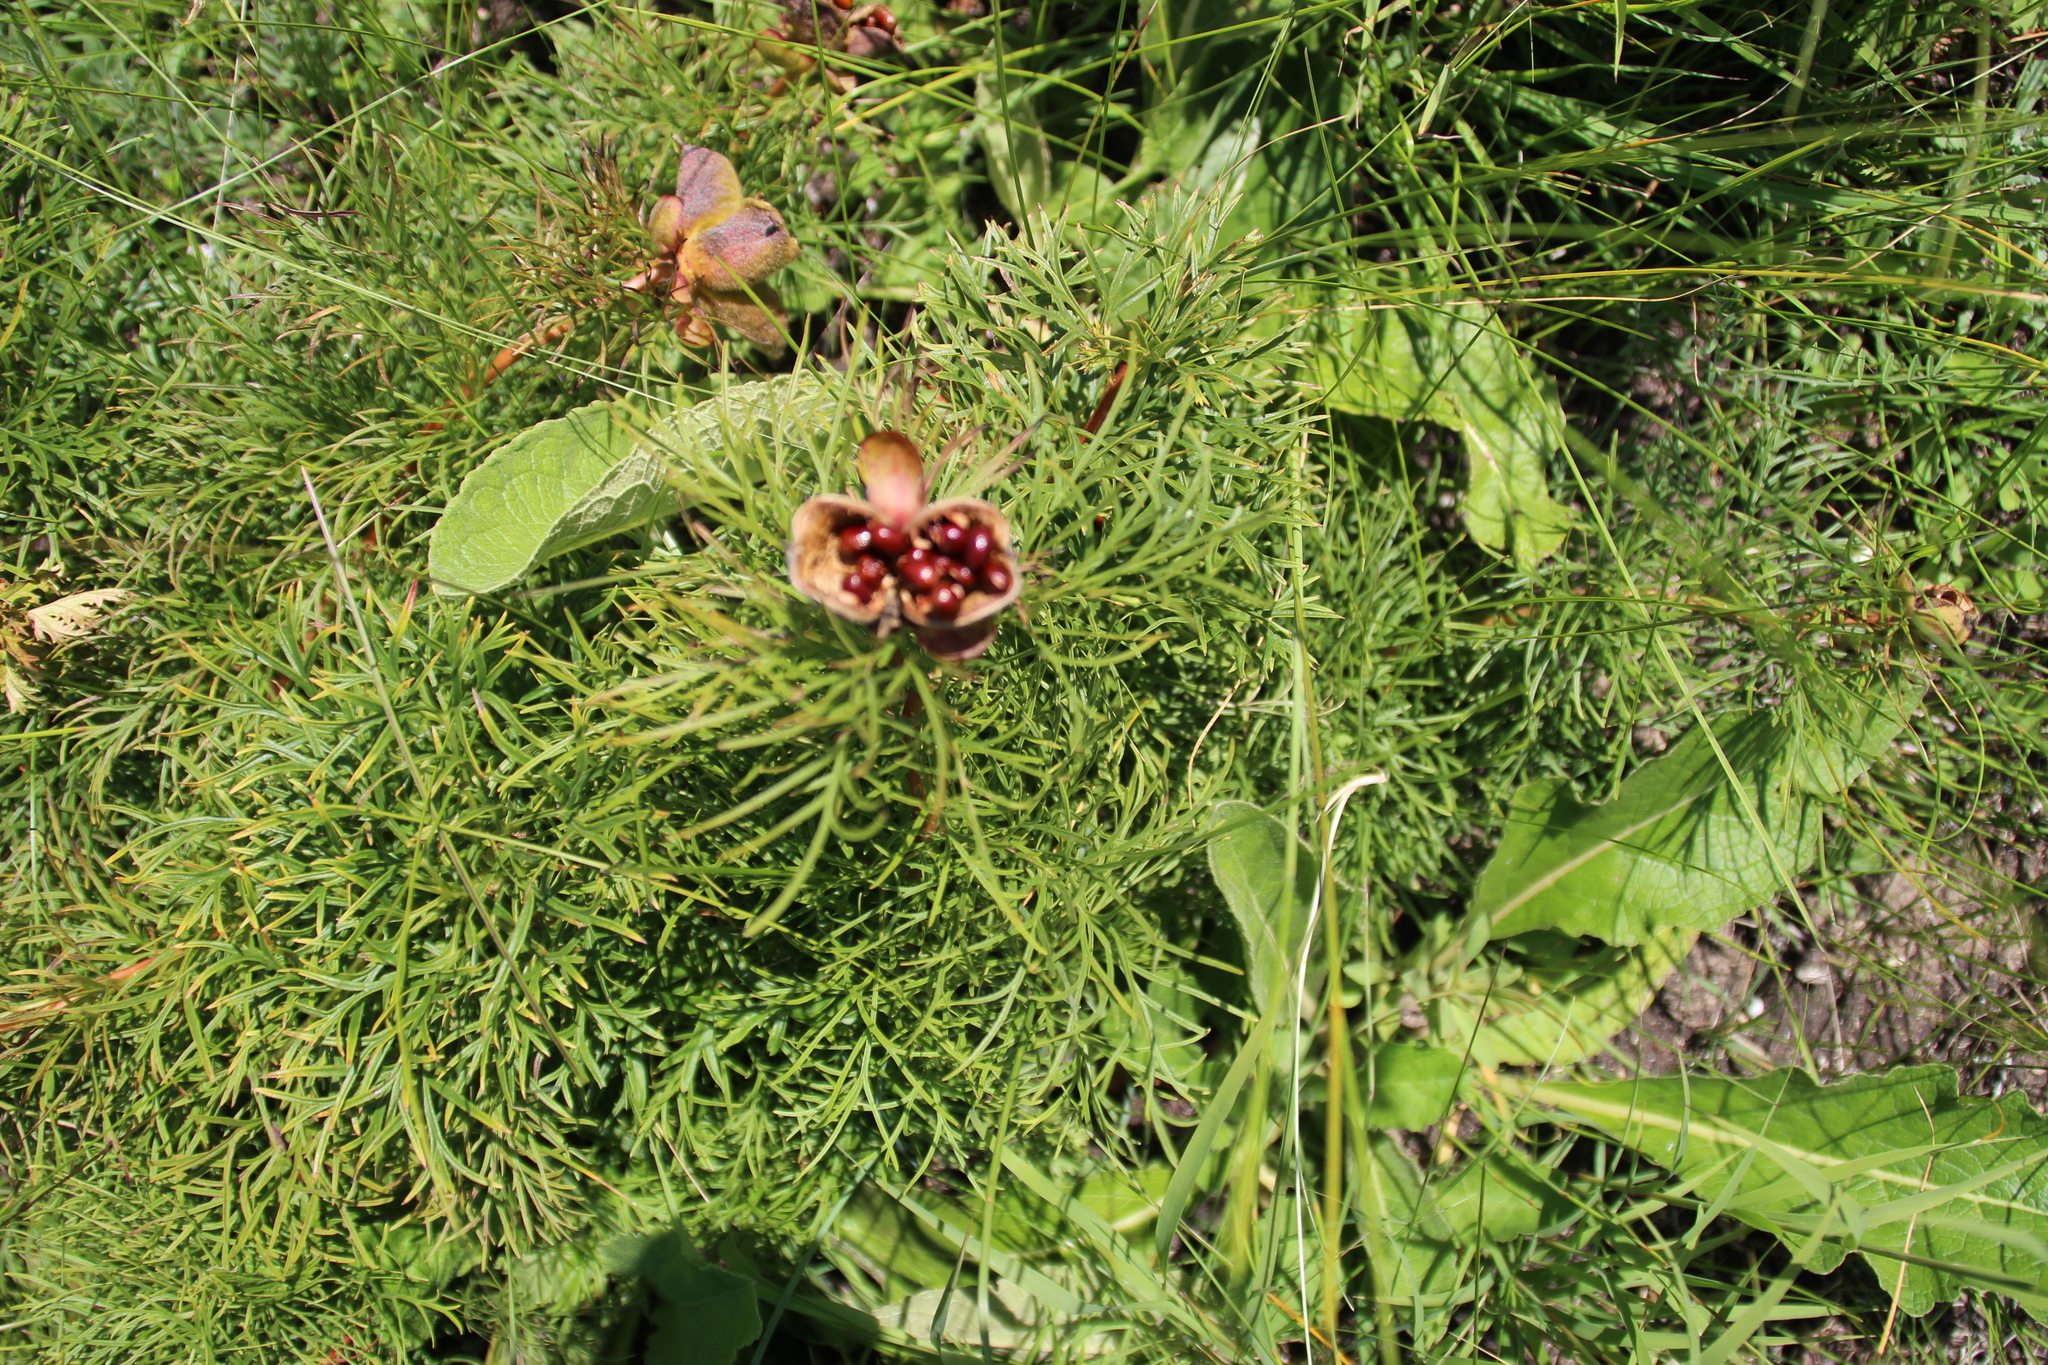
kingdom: Plantae
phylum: Tracheophyta
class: Magnoliopsida
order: Saxifragales
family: Paeoniaceae
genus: Paeonia
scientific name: Paeonia tenuifolia
